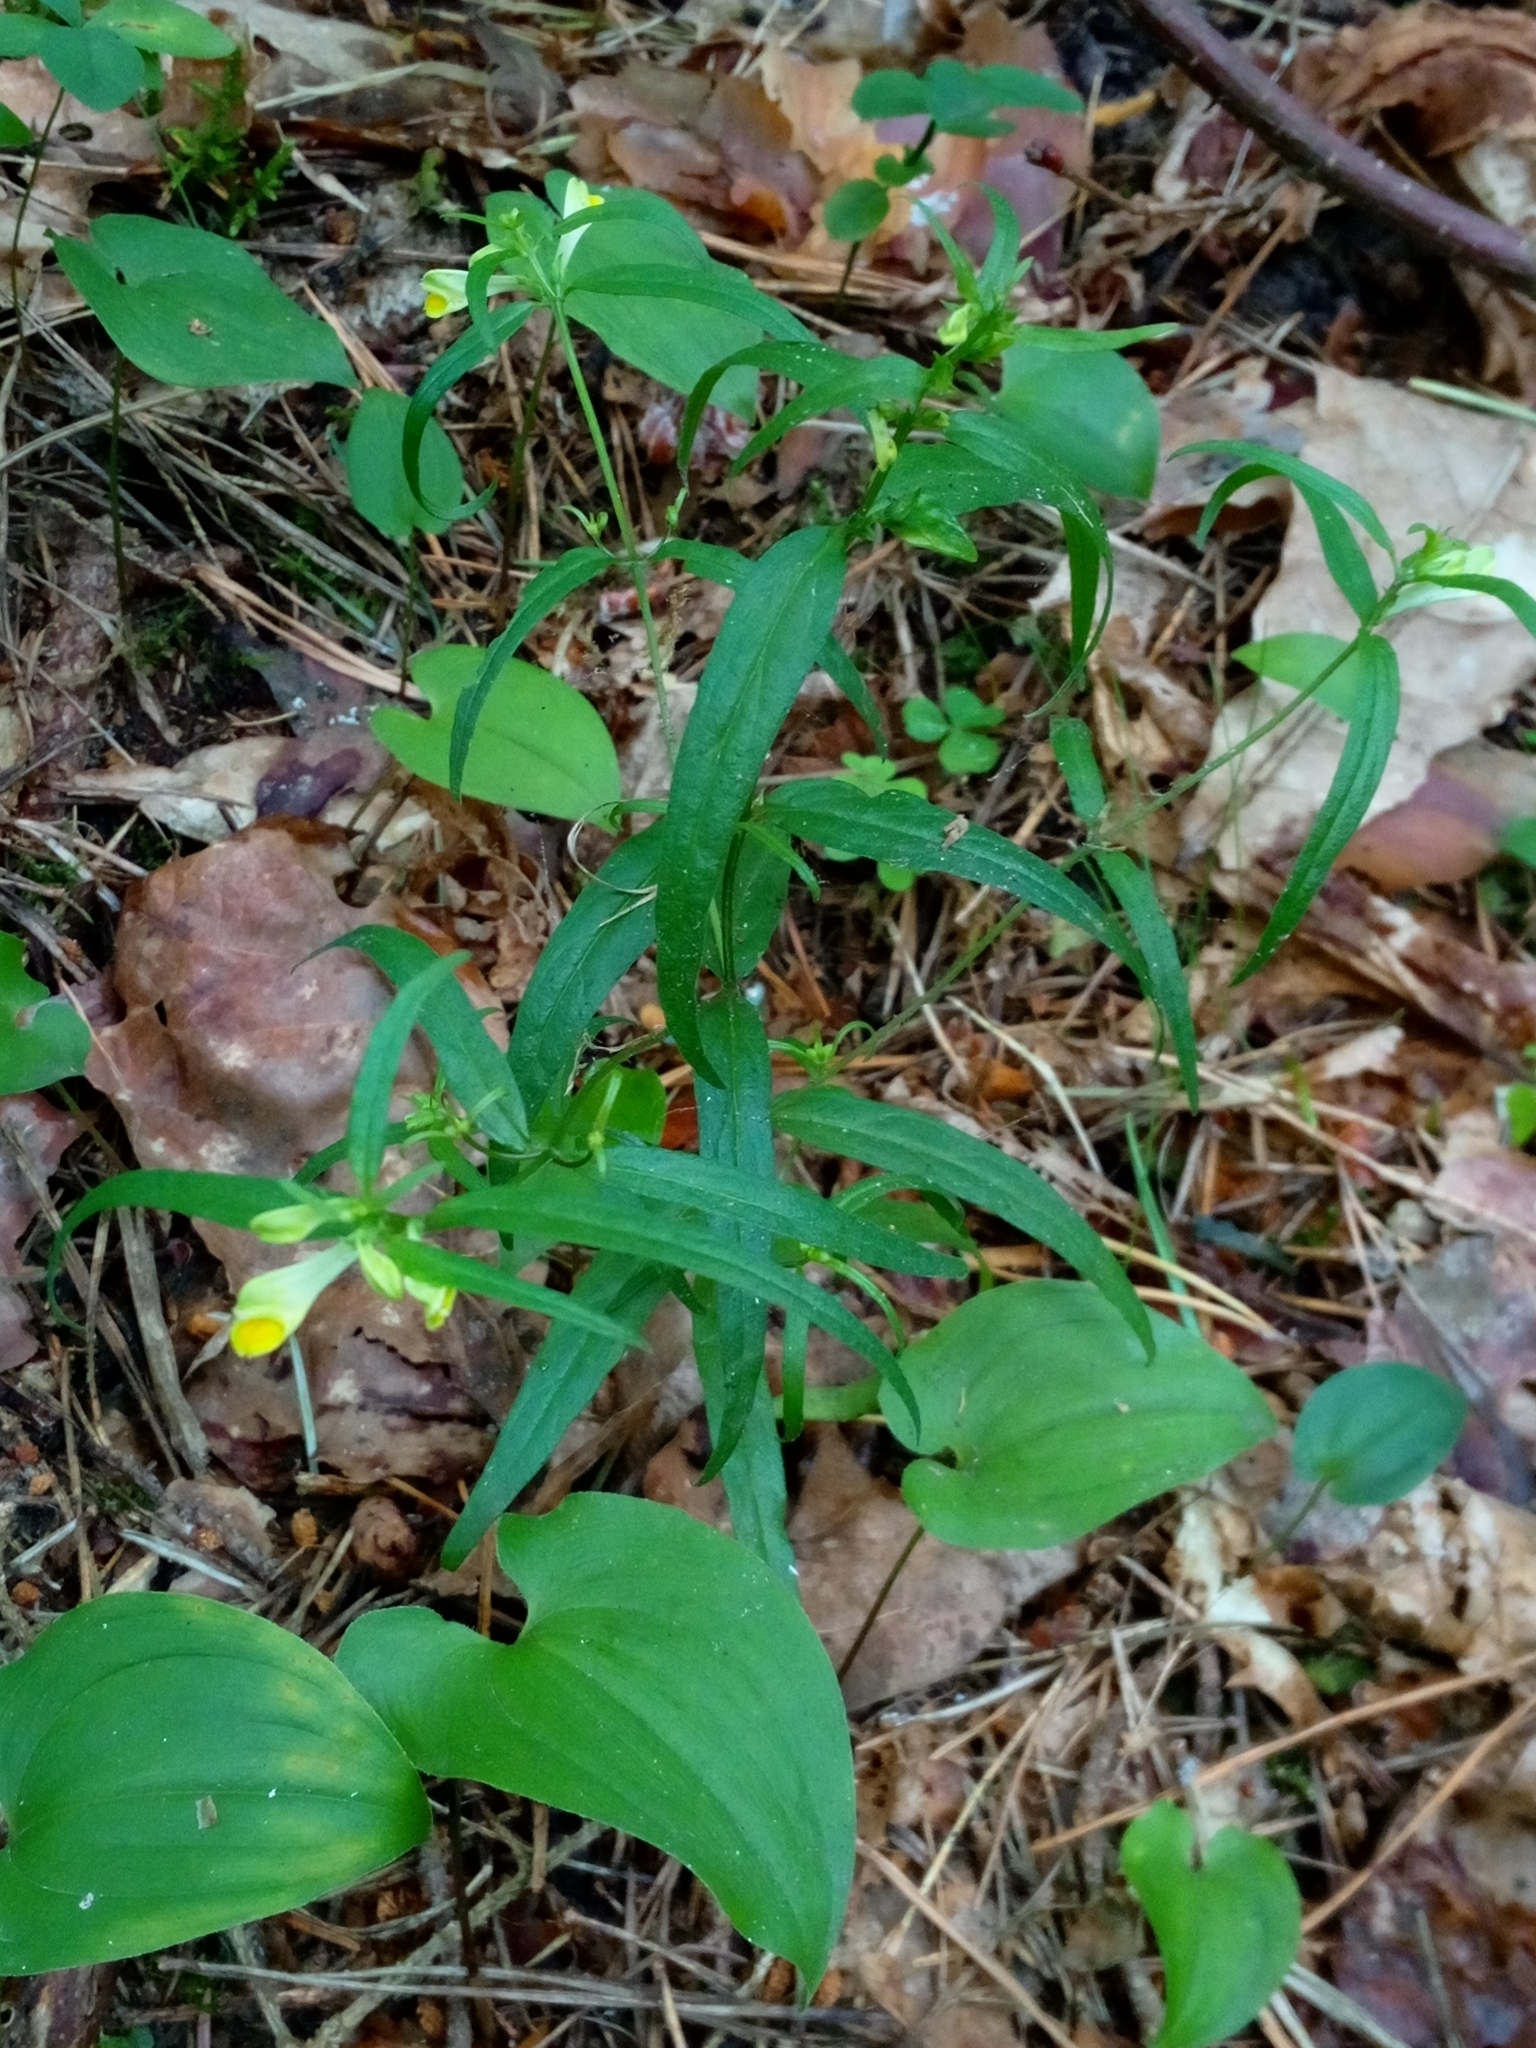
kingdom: Plantae
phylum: Tracheophyta
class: Magnoliopsida
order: Lamiales
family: Orobanchaceae
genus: Melampyrum
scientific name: Melampyrum pratense
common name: Common cow-wheat
